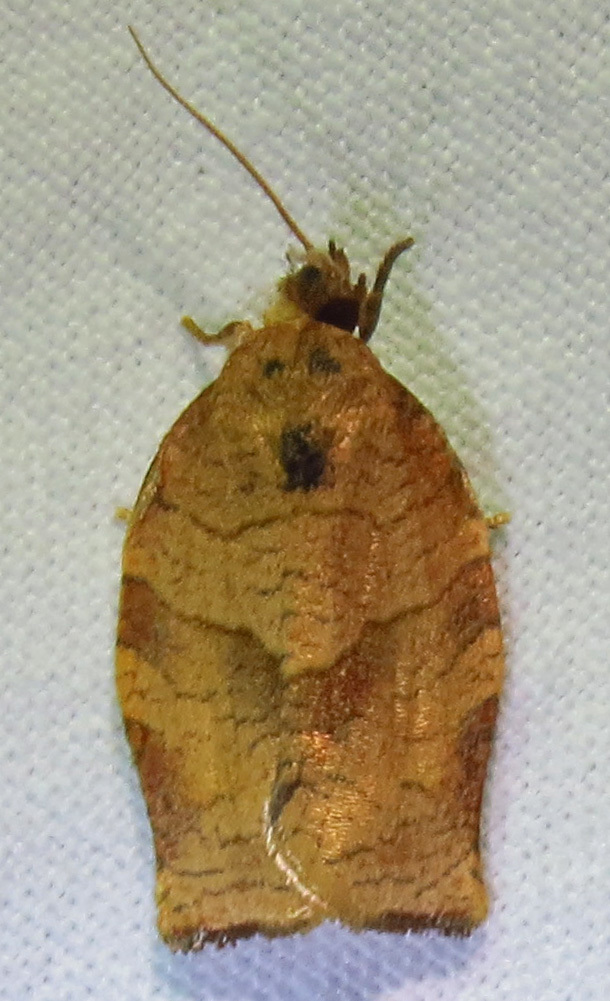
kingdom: Animalia
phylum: Arthropoda
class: Insecta
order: Lepidoptera
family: Tortricidae
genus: Choristoneura
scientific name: Choristoneura rosaceana
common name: Oblique-banded leafroller moth
